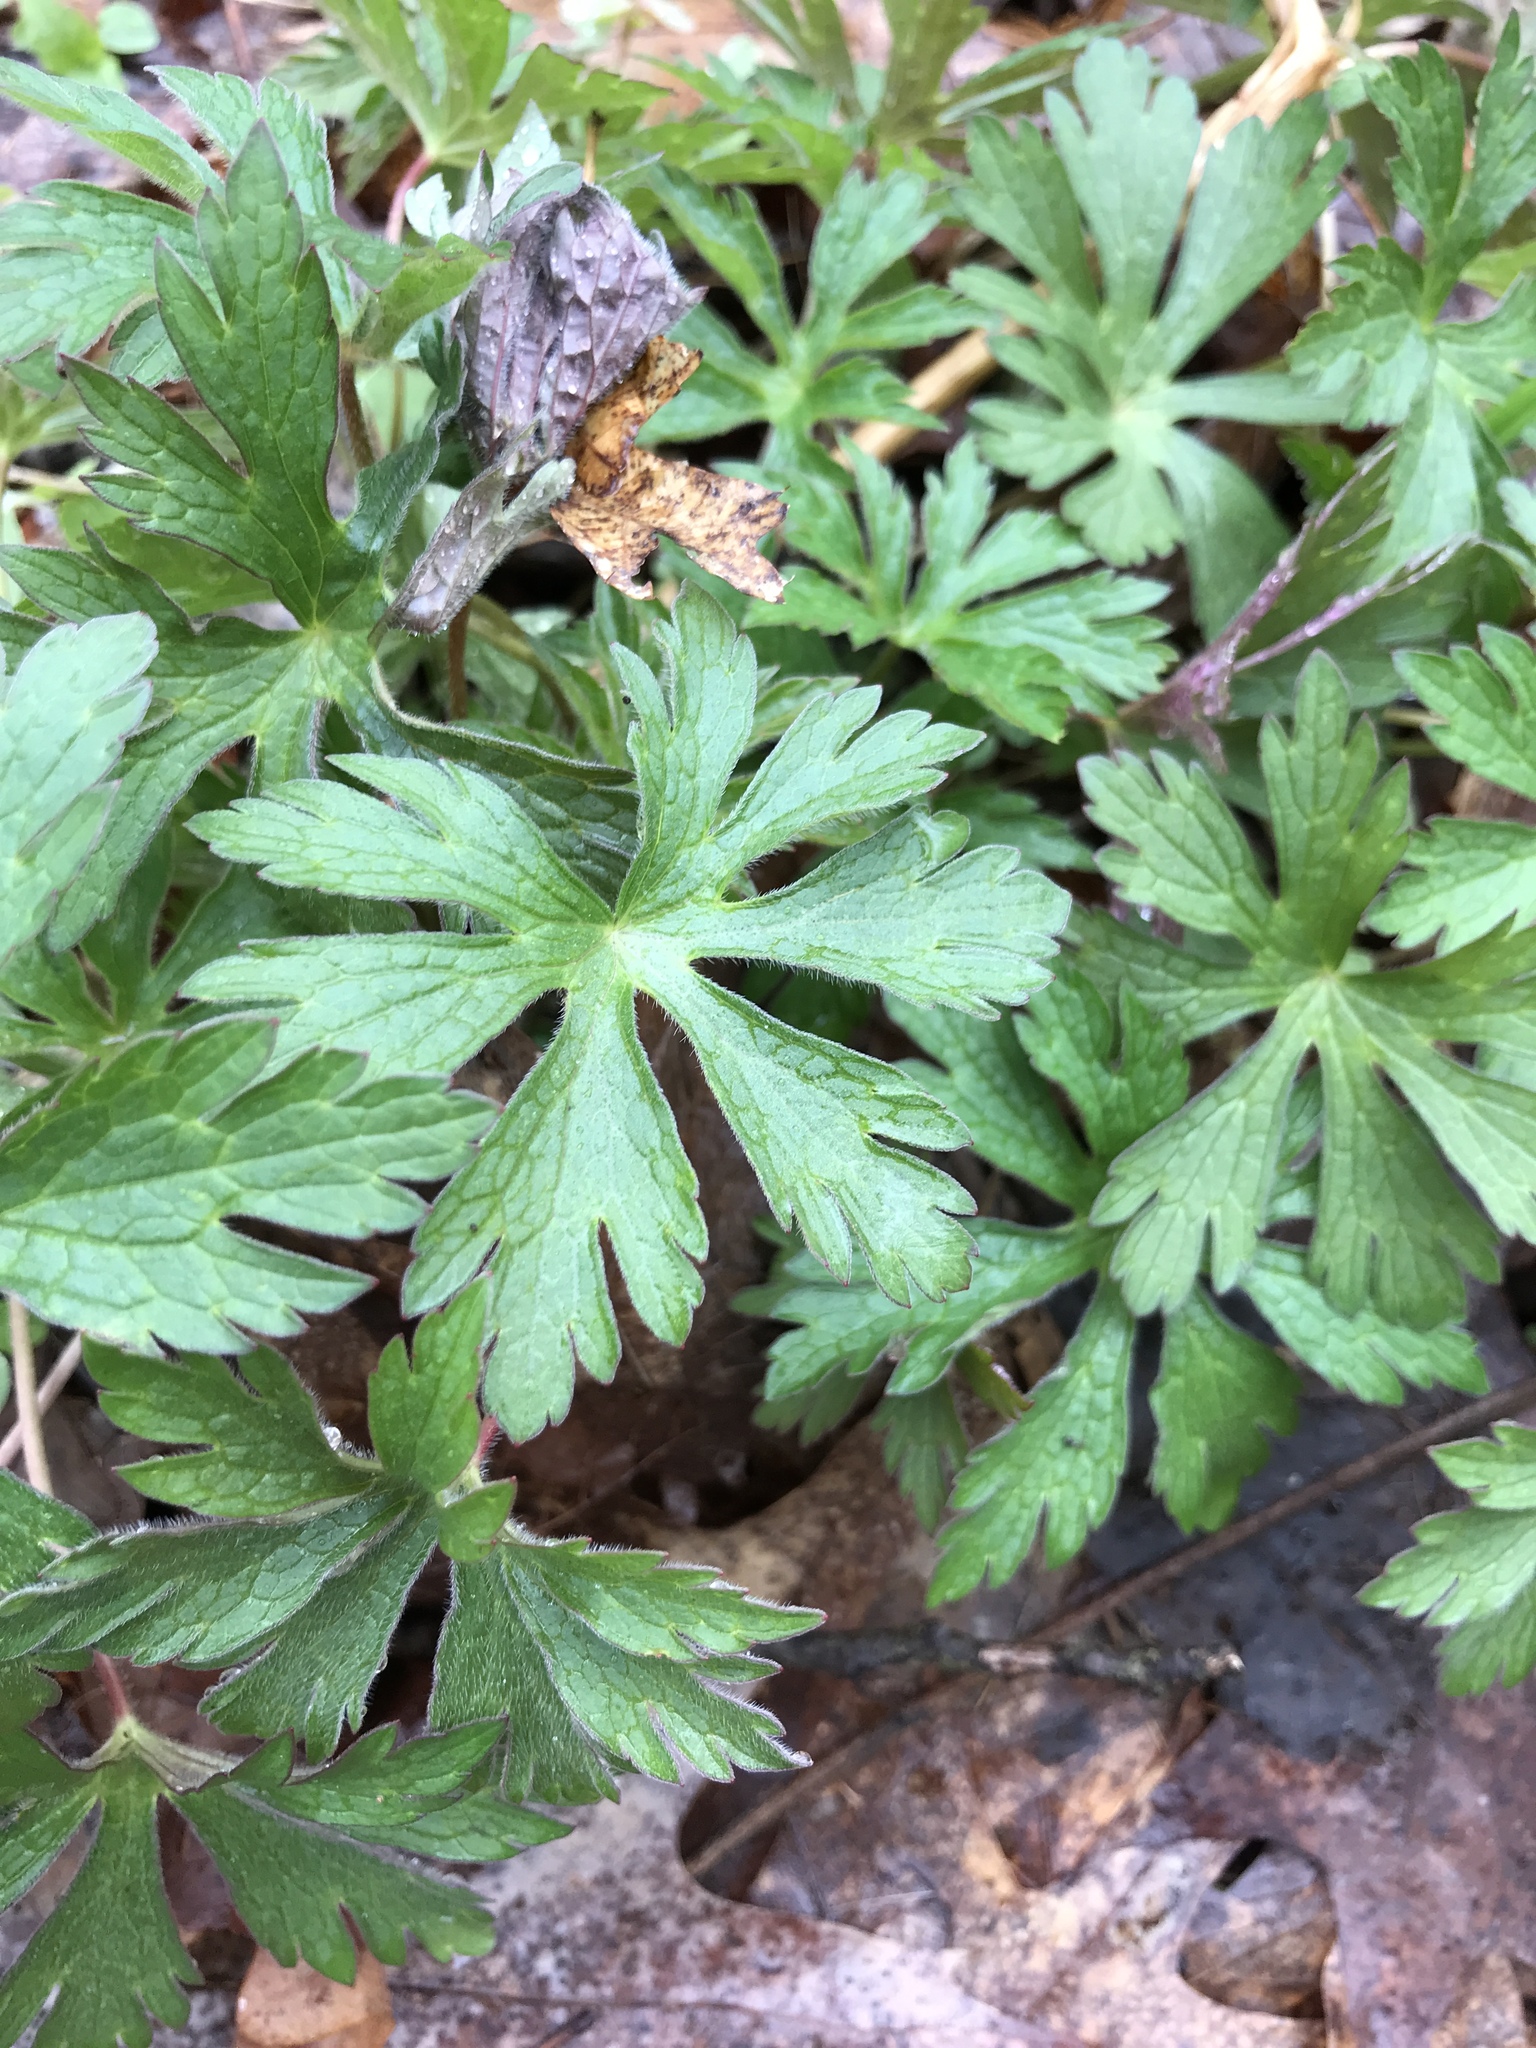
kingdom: Plantae
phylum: Tracheophyta
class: Magnoliopsida
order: Geraniales
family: Geraniaceae
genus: Geranium
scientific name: Geranium maculatum
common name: Spotted geranium
